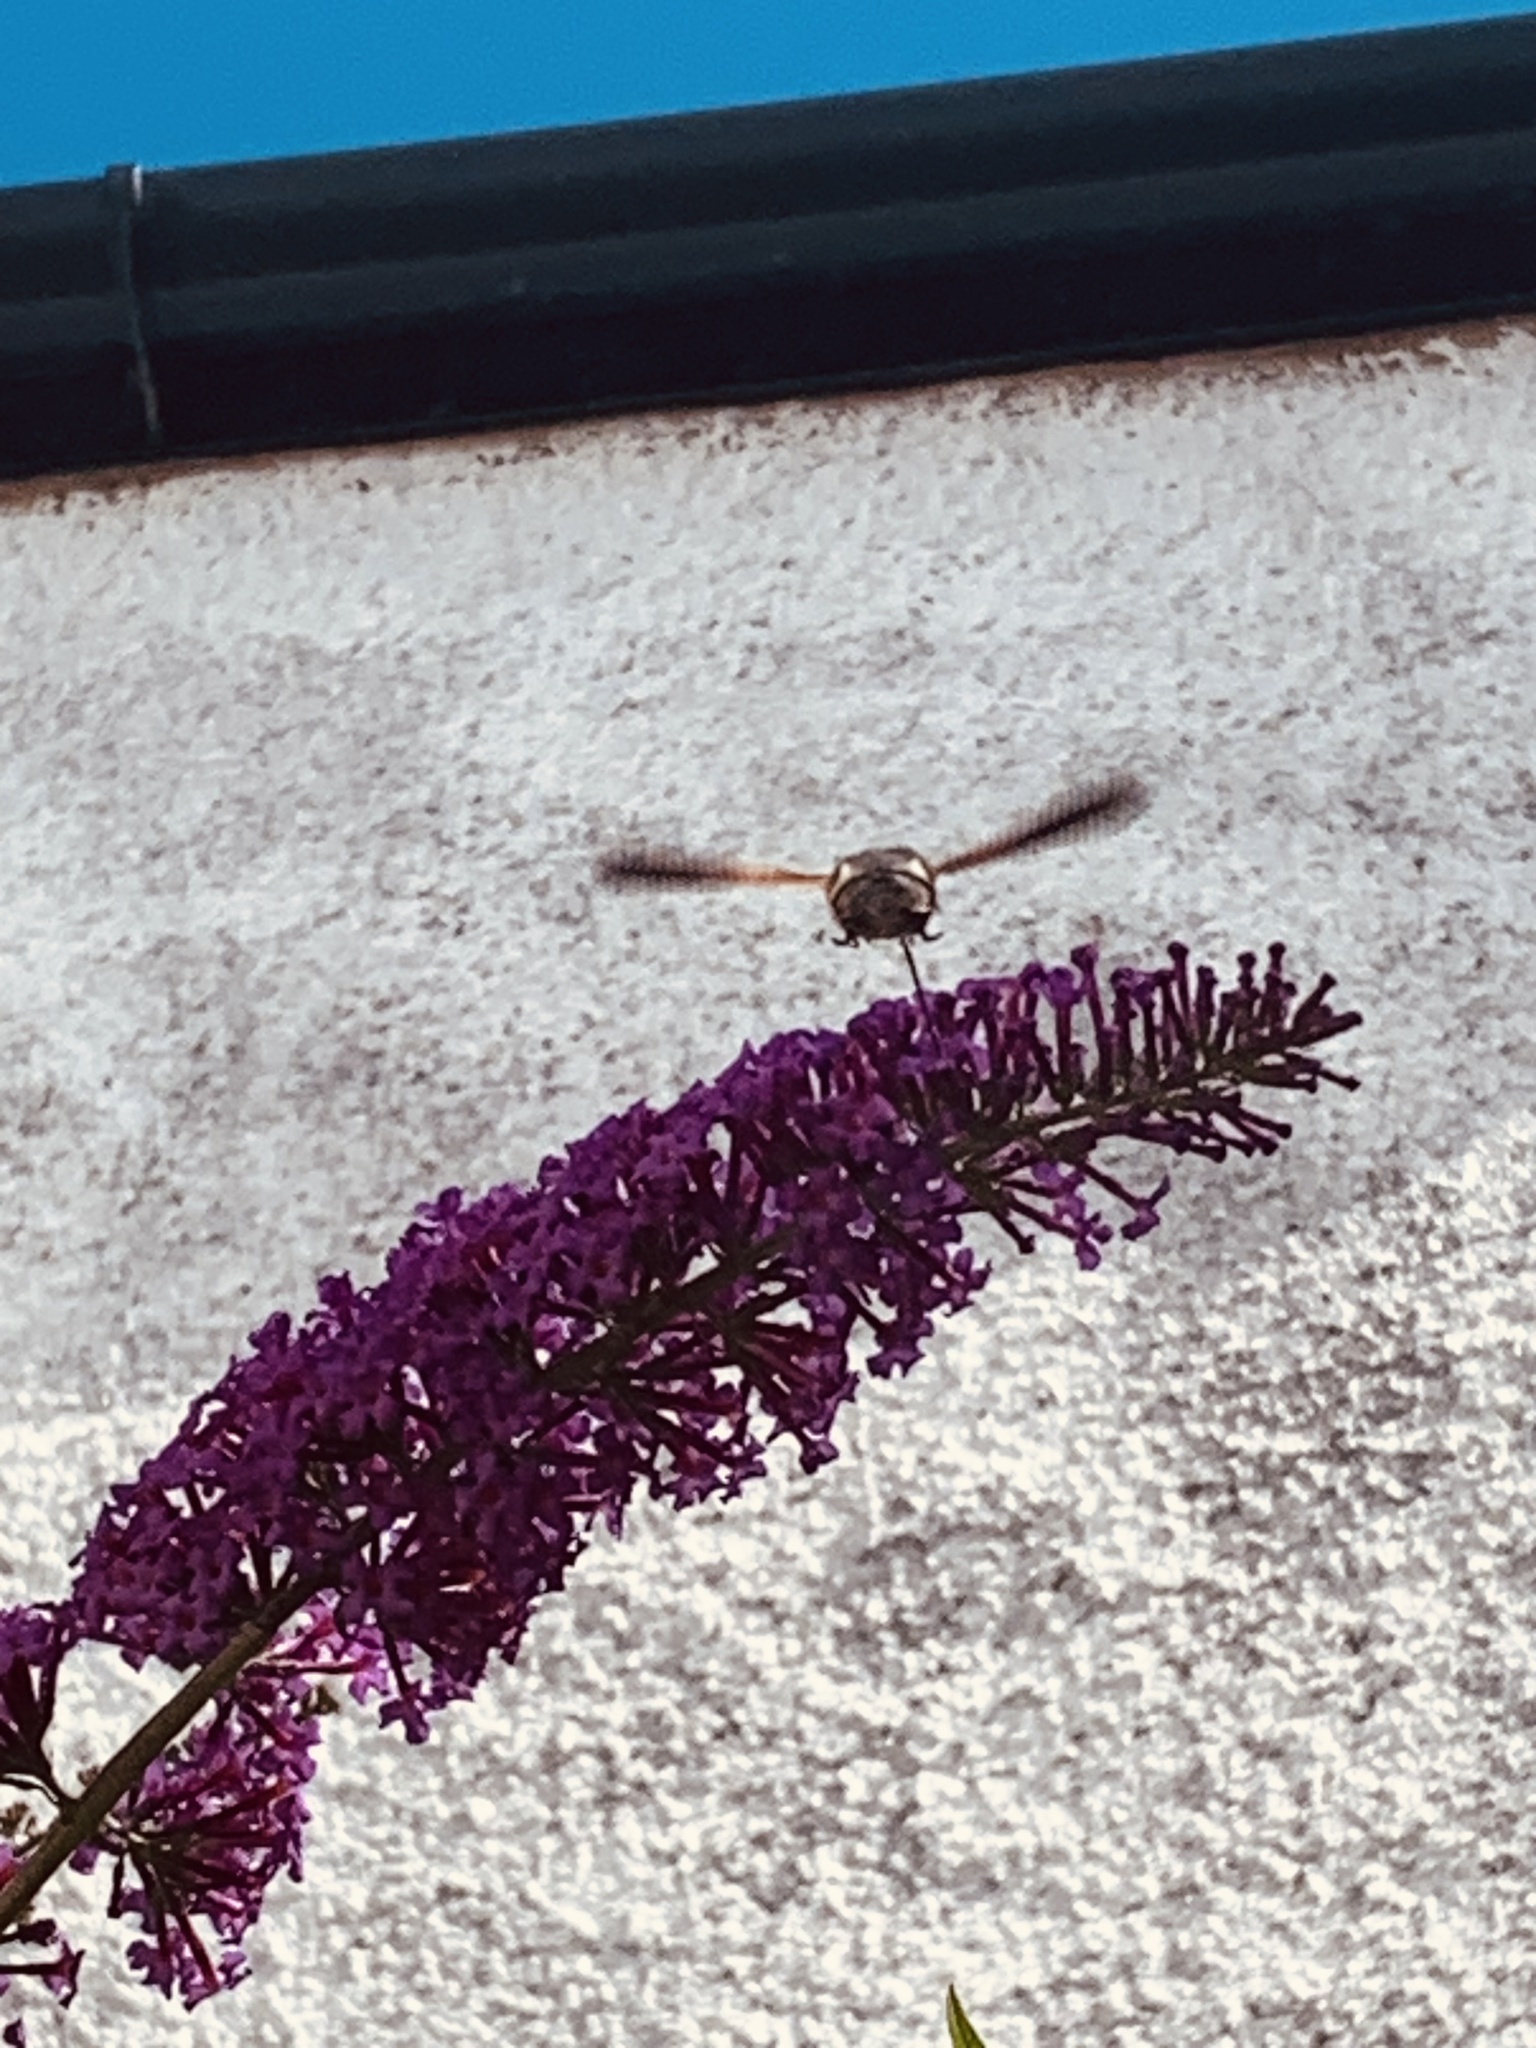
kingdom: Animalia
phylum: Arthropoda
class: Insecta
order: Lepidoptera
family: Sphingidae
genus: Macroglossum
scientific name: Macroglossum stellatarum
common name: Humming-bird hawk-moth
